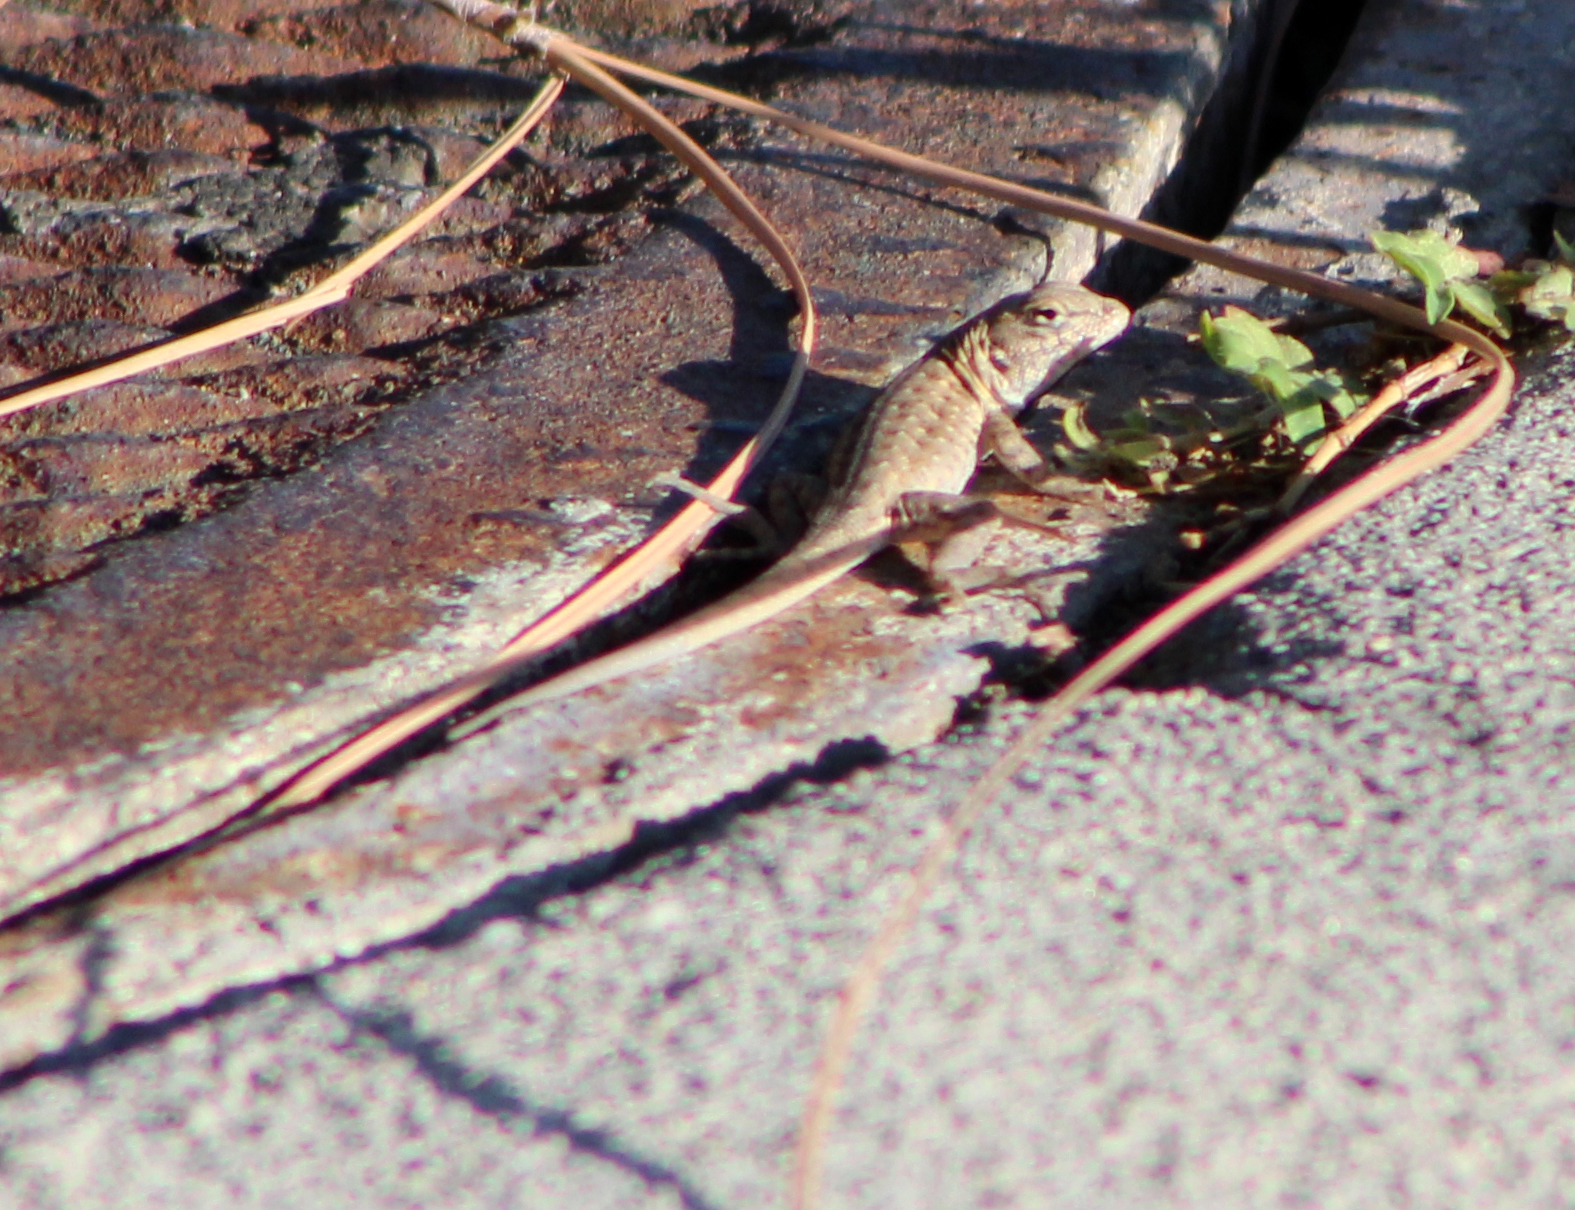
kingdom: Animalia
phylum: Chordata
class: Squamata
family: Phrynosomatidae
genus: Uta
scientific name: Uta stansburiana
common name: Side-blotched lizard
